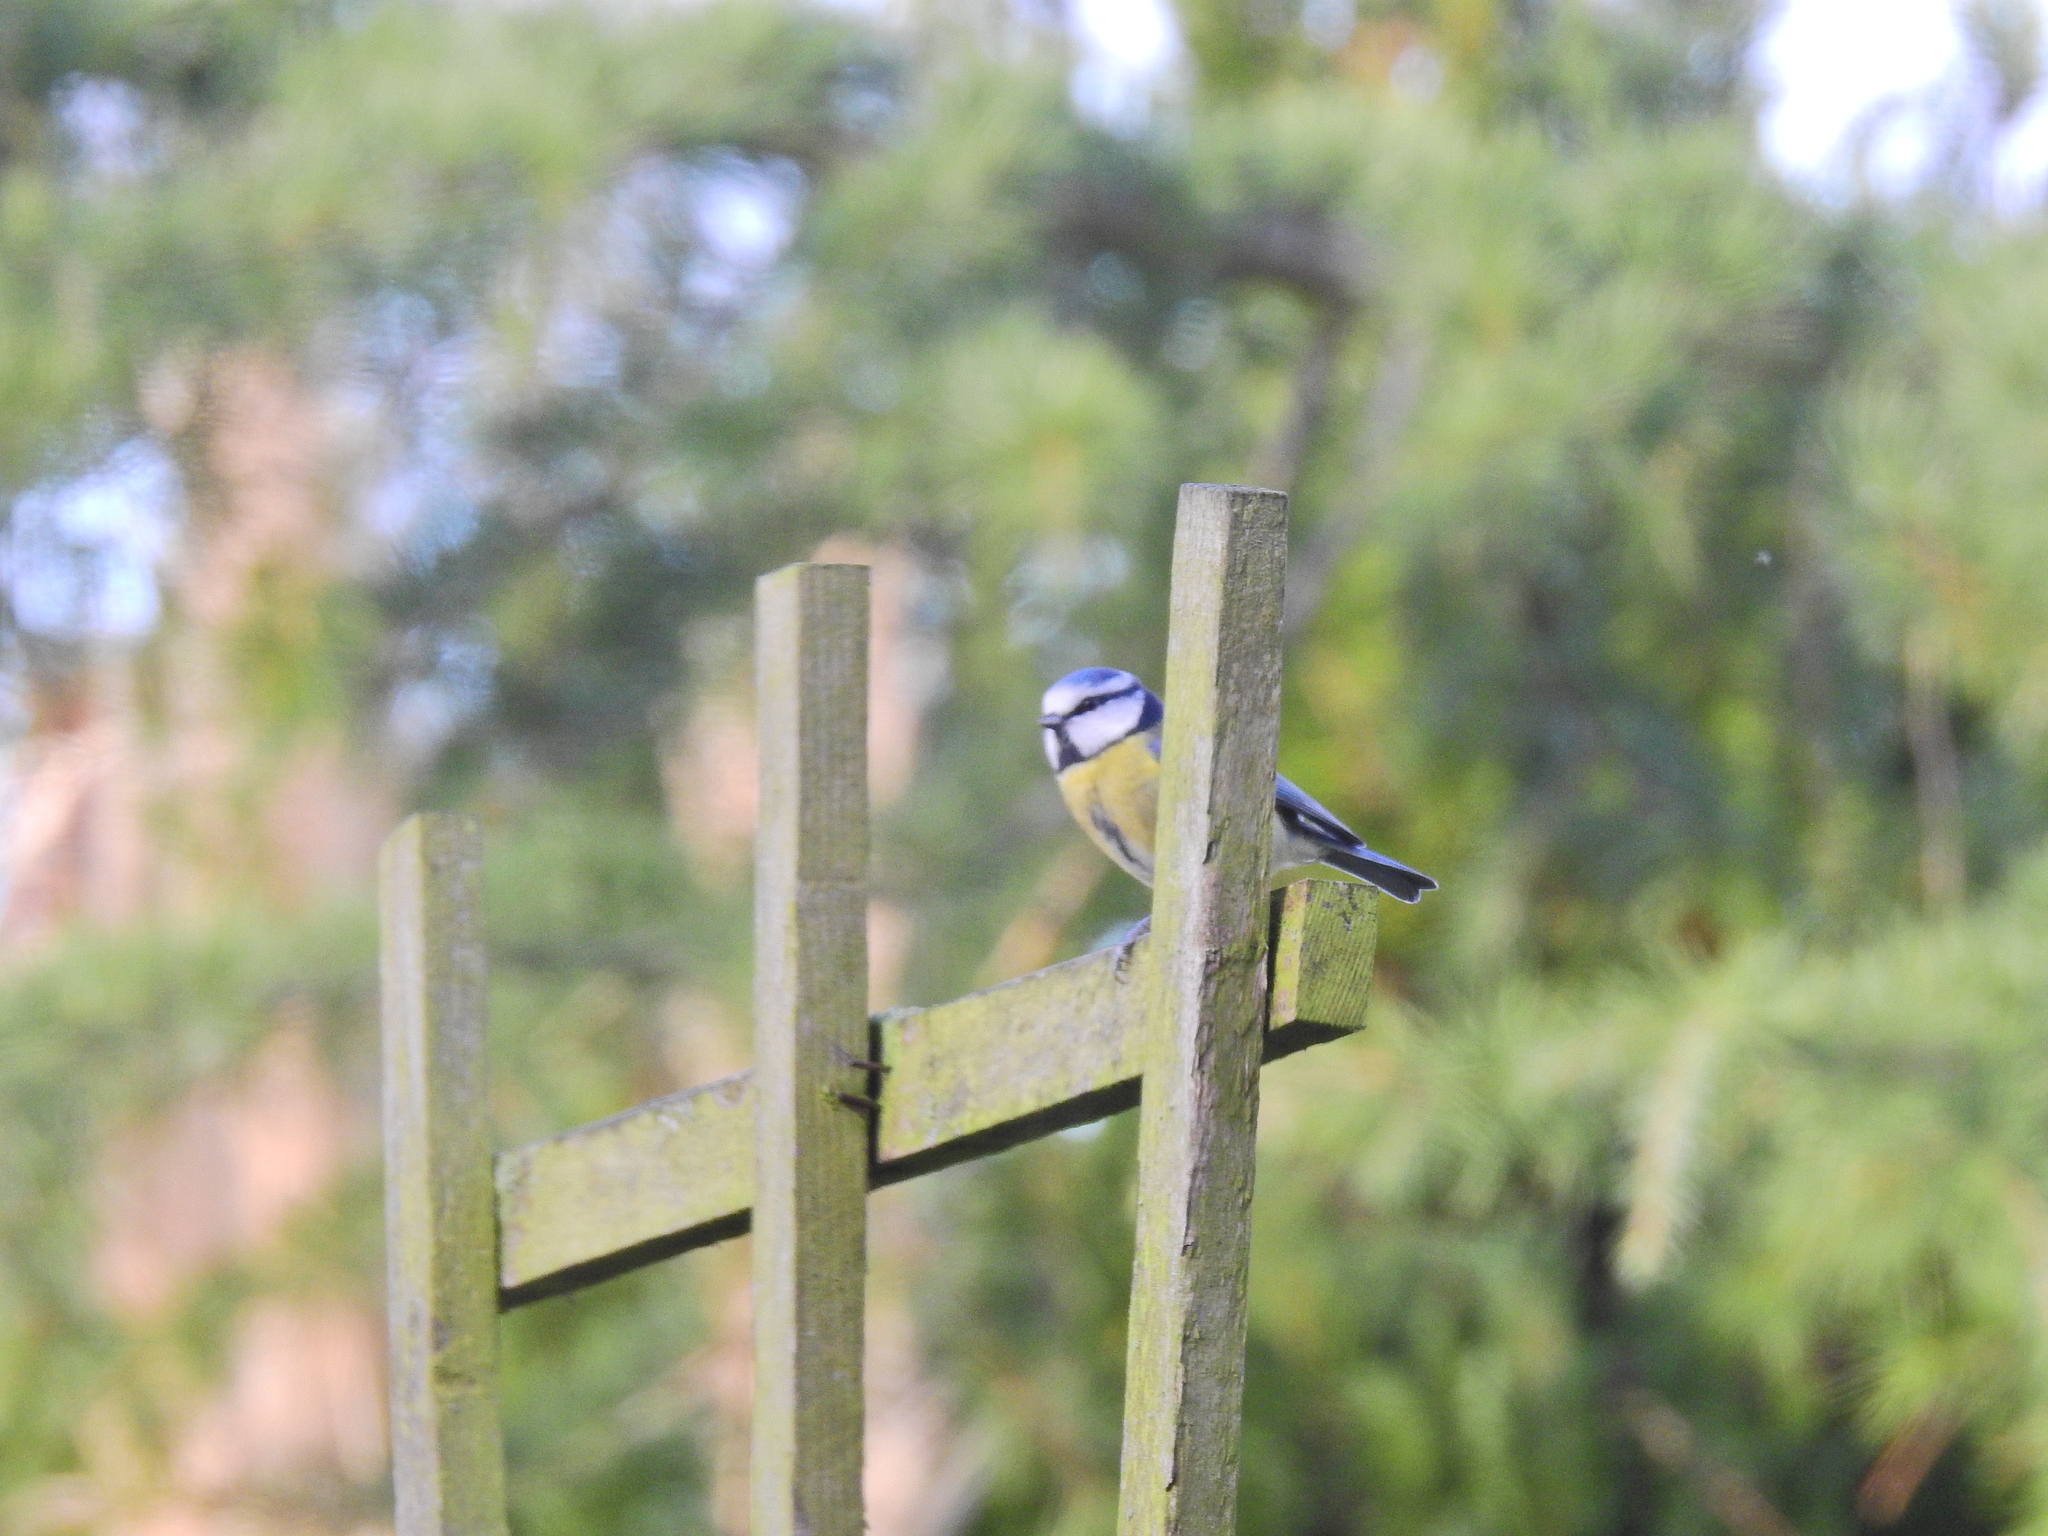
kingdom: Animalia
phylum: Chordata
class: Aves
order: Passeriformes
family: Paridae
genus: Cyanistes
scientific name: Cyanistes caeruleus
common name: Eurasian blue tit
